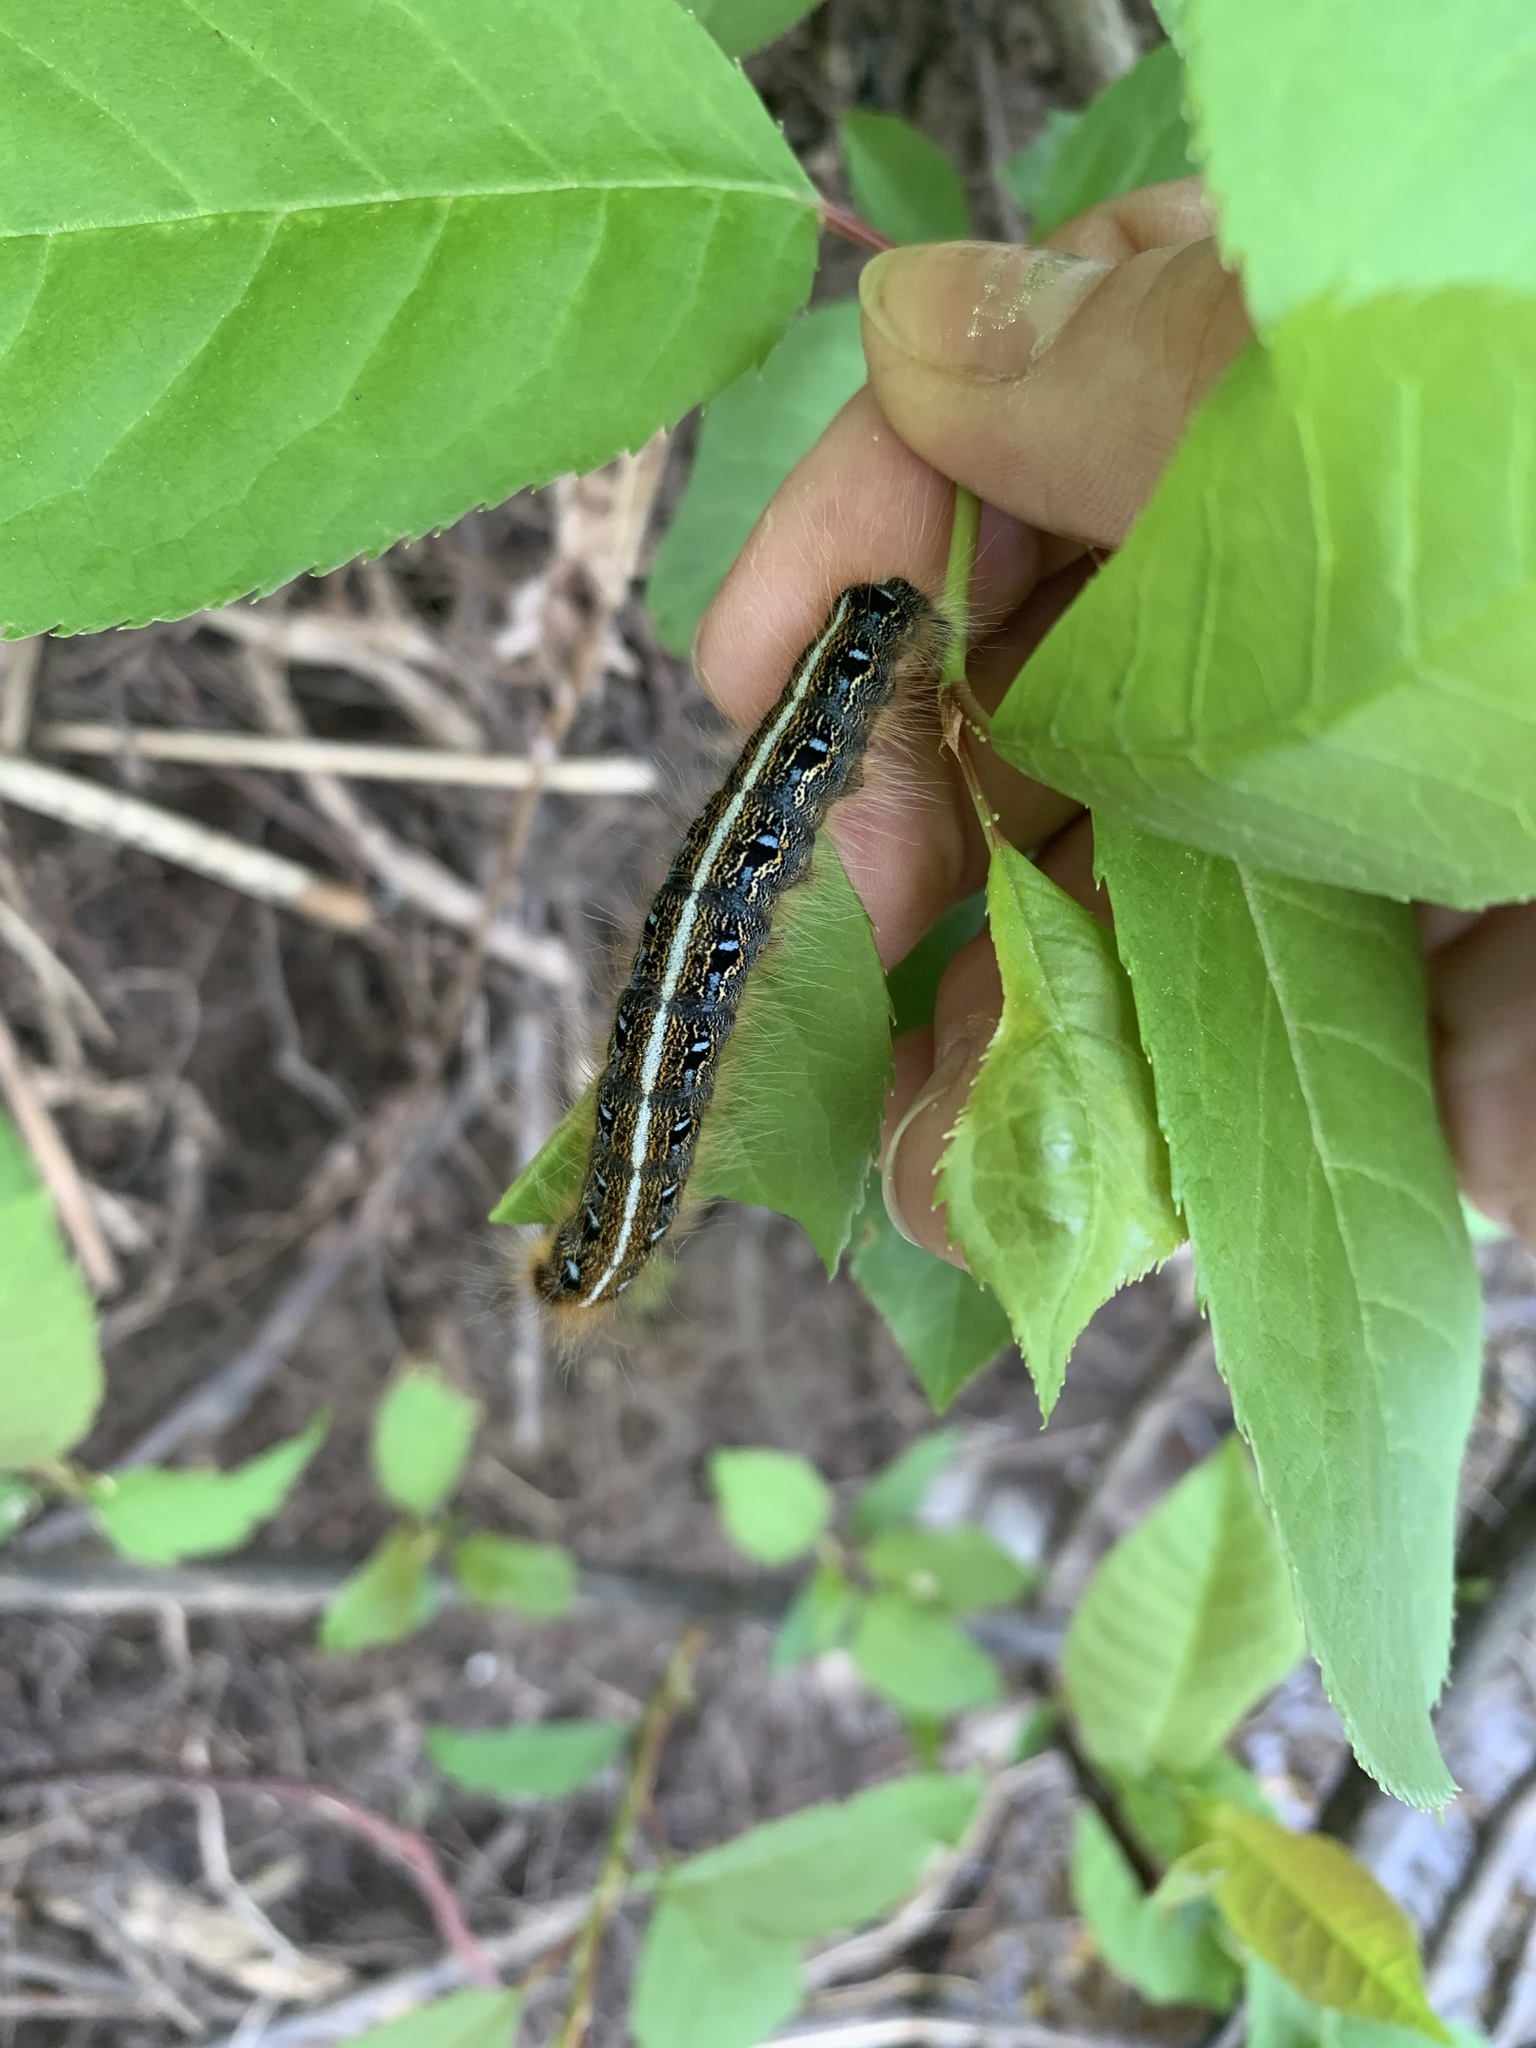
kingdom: Animalia
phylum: Arthropoda
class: Insecta
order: Lepidoptera
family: Lasiocampidae
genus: Malacosoma
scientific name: Malacosoma americana
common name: Eastern tent caterpillar moth
